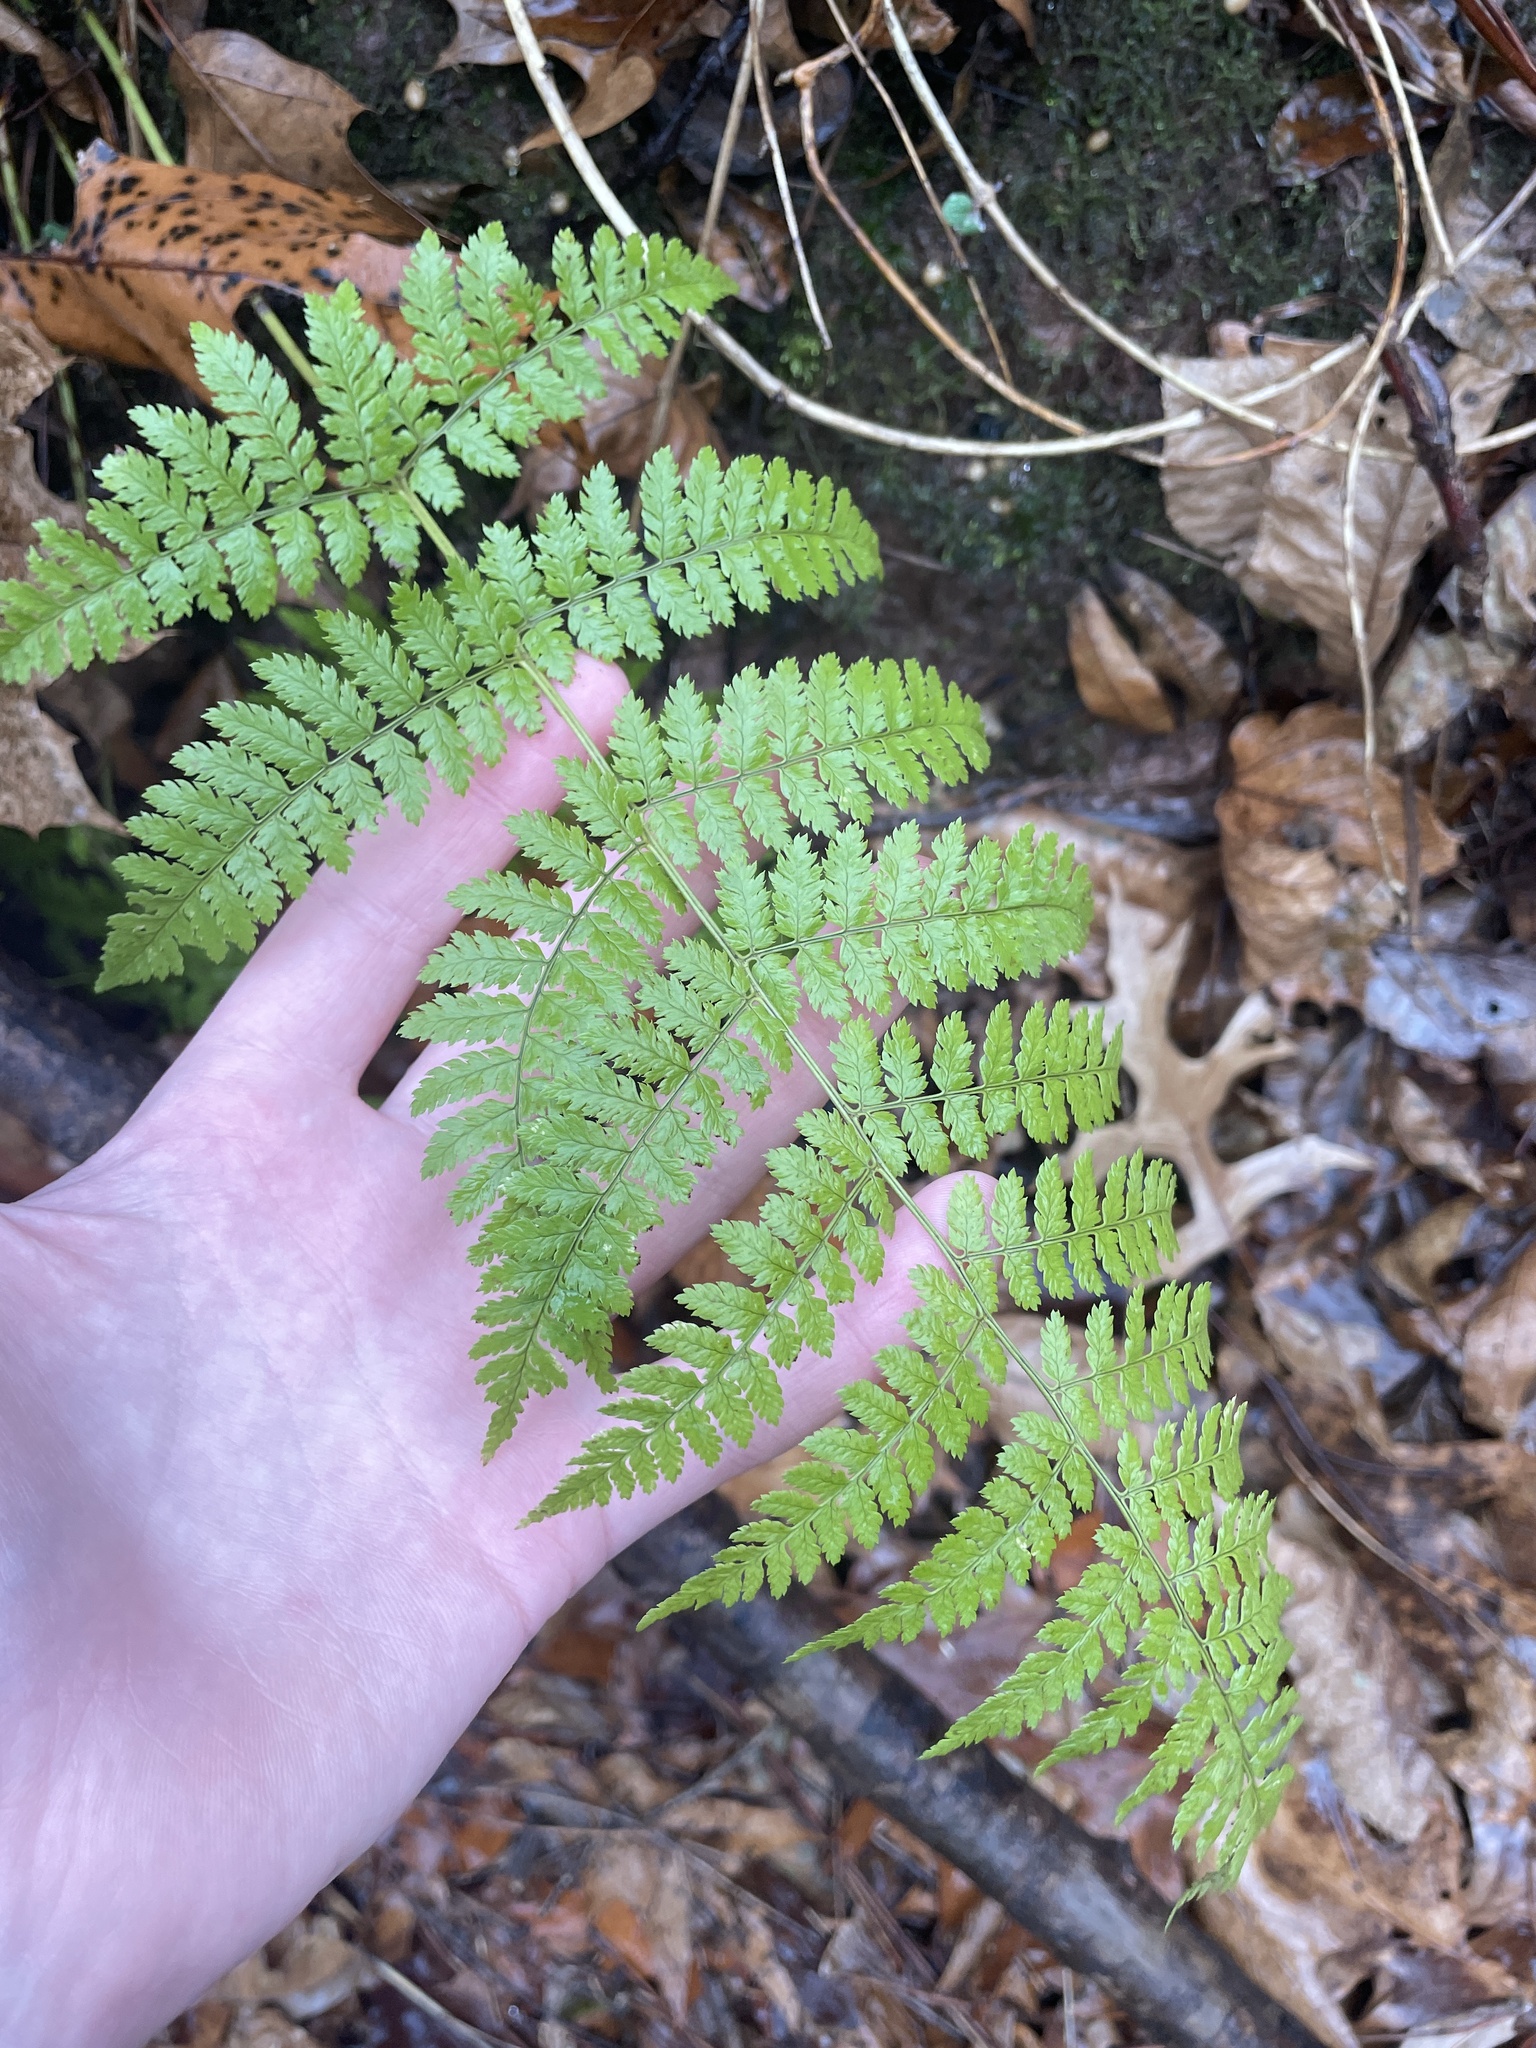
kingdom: Plantae
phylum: Tracheophyta
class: Polypodiopsida
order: Polypodiales
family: Dryopteridaceae
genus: Dryopteris
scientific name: Dryopteris intermedia
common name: Evergreen wood fern
